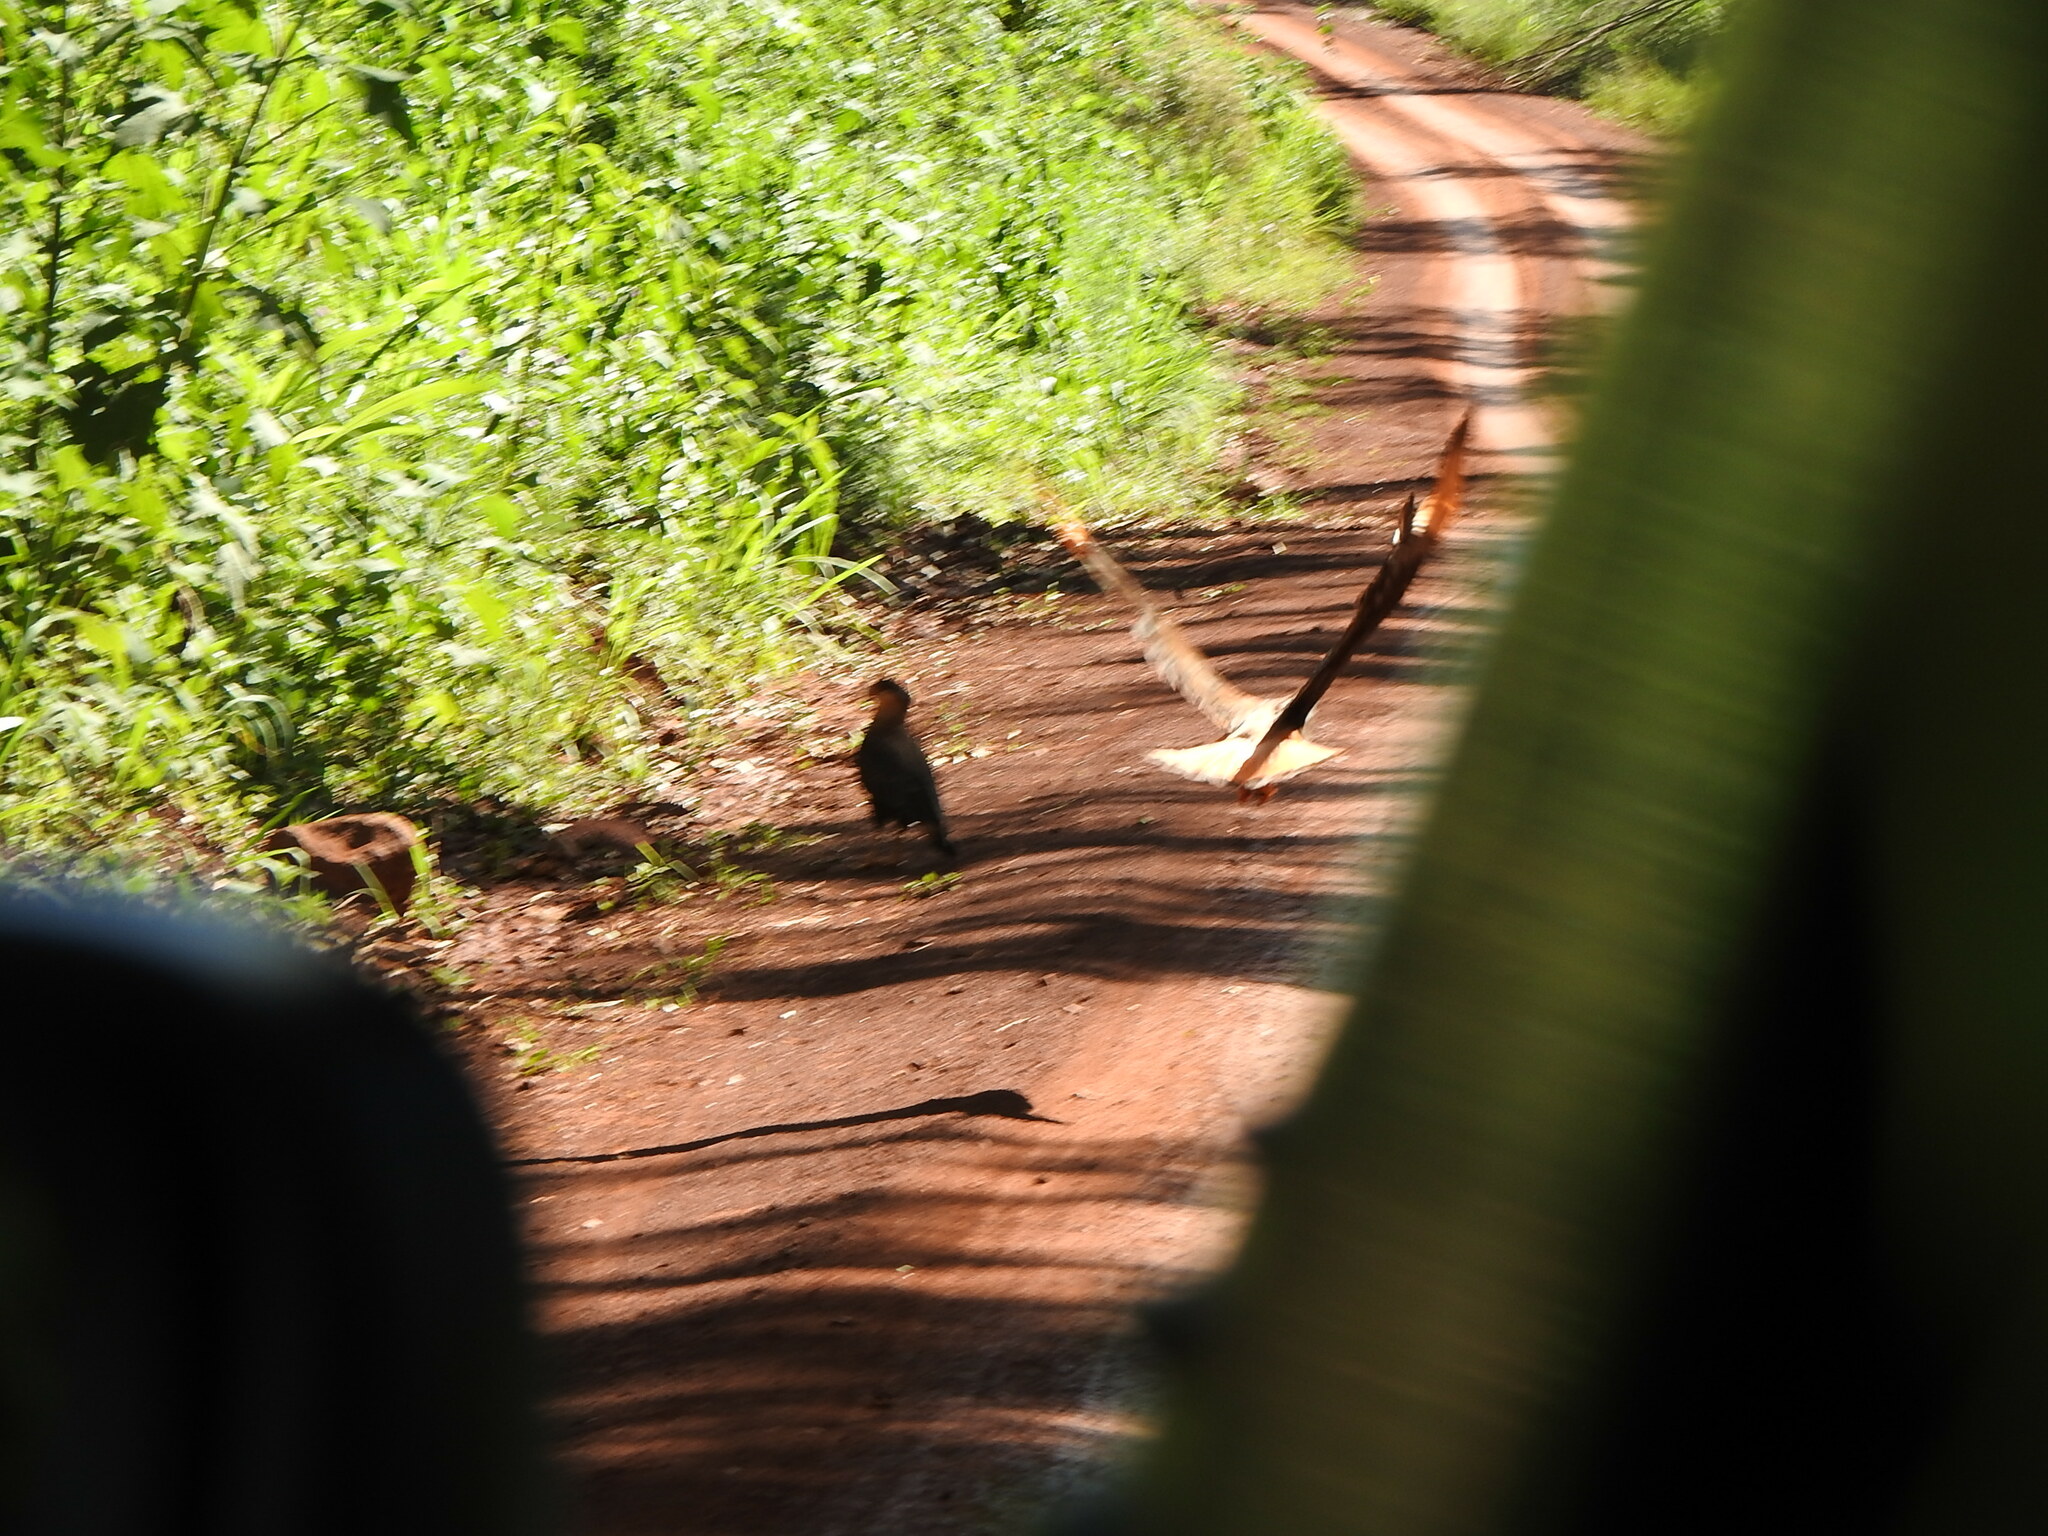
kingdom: Animalia
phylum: Chordata
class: Aves
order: Falconiformes
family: Falconidae
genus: Caracara
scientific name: Caracara plancus
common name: Southern caracara
